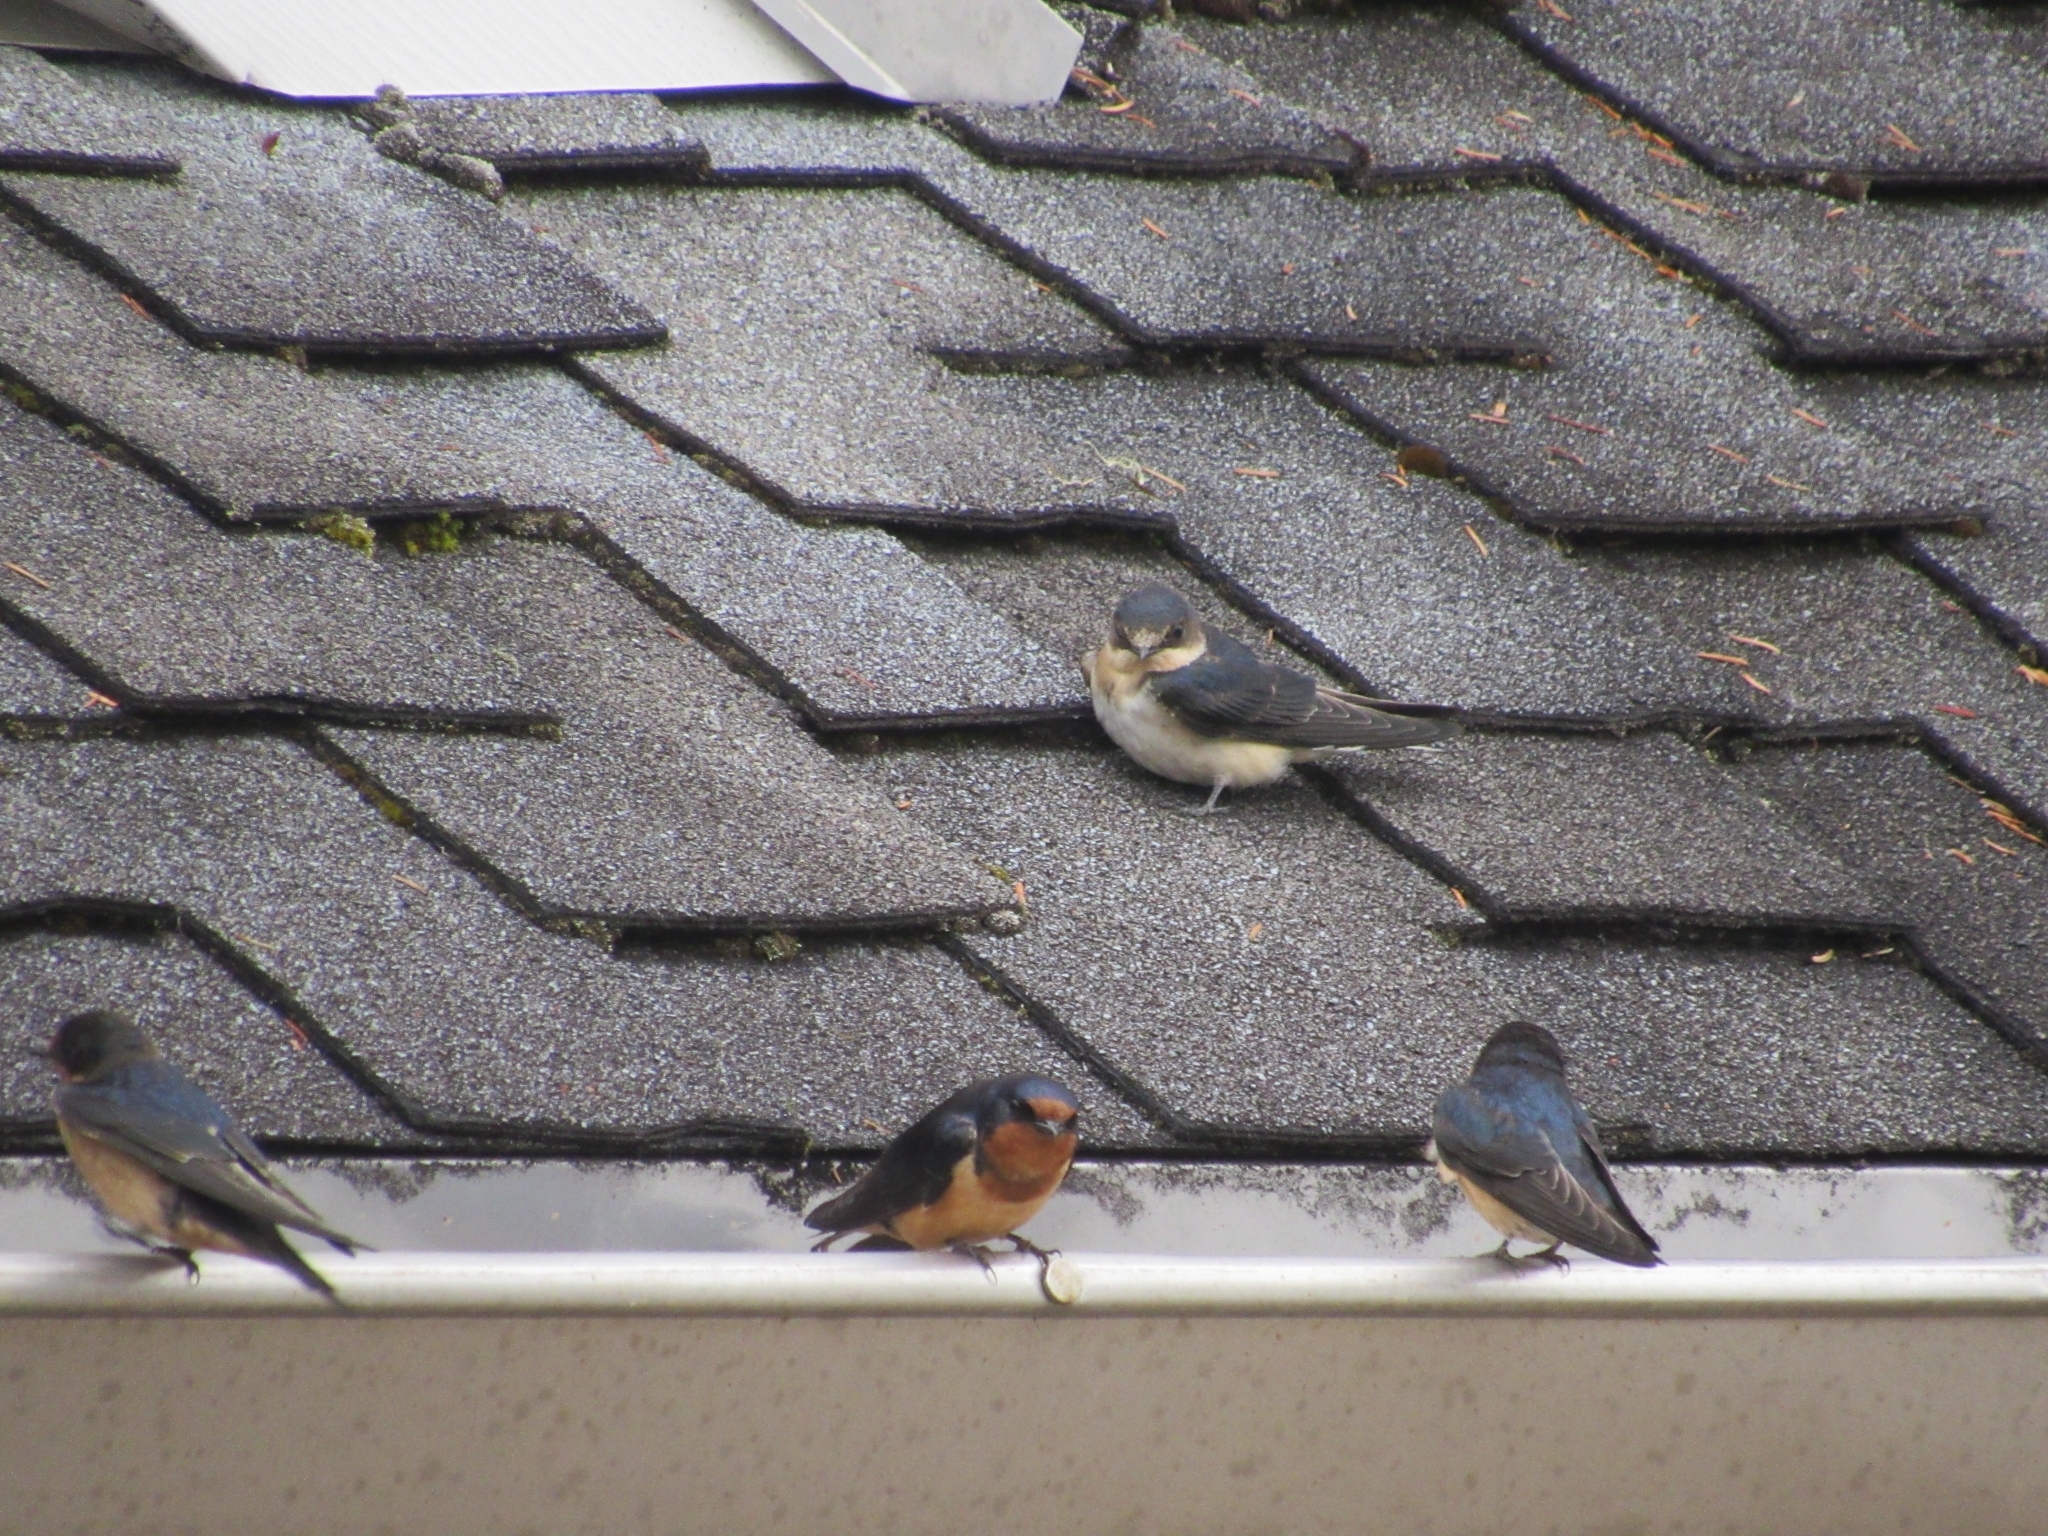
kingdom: Animalia
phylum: Chordata
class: Aves
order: Passeriformes
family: Hirundinidae
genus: Hirundo
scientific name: Hirundo rustica
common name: Barn swallow
